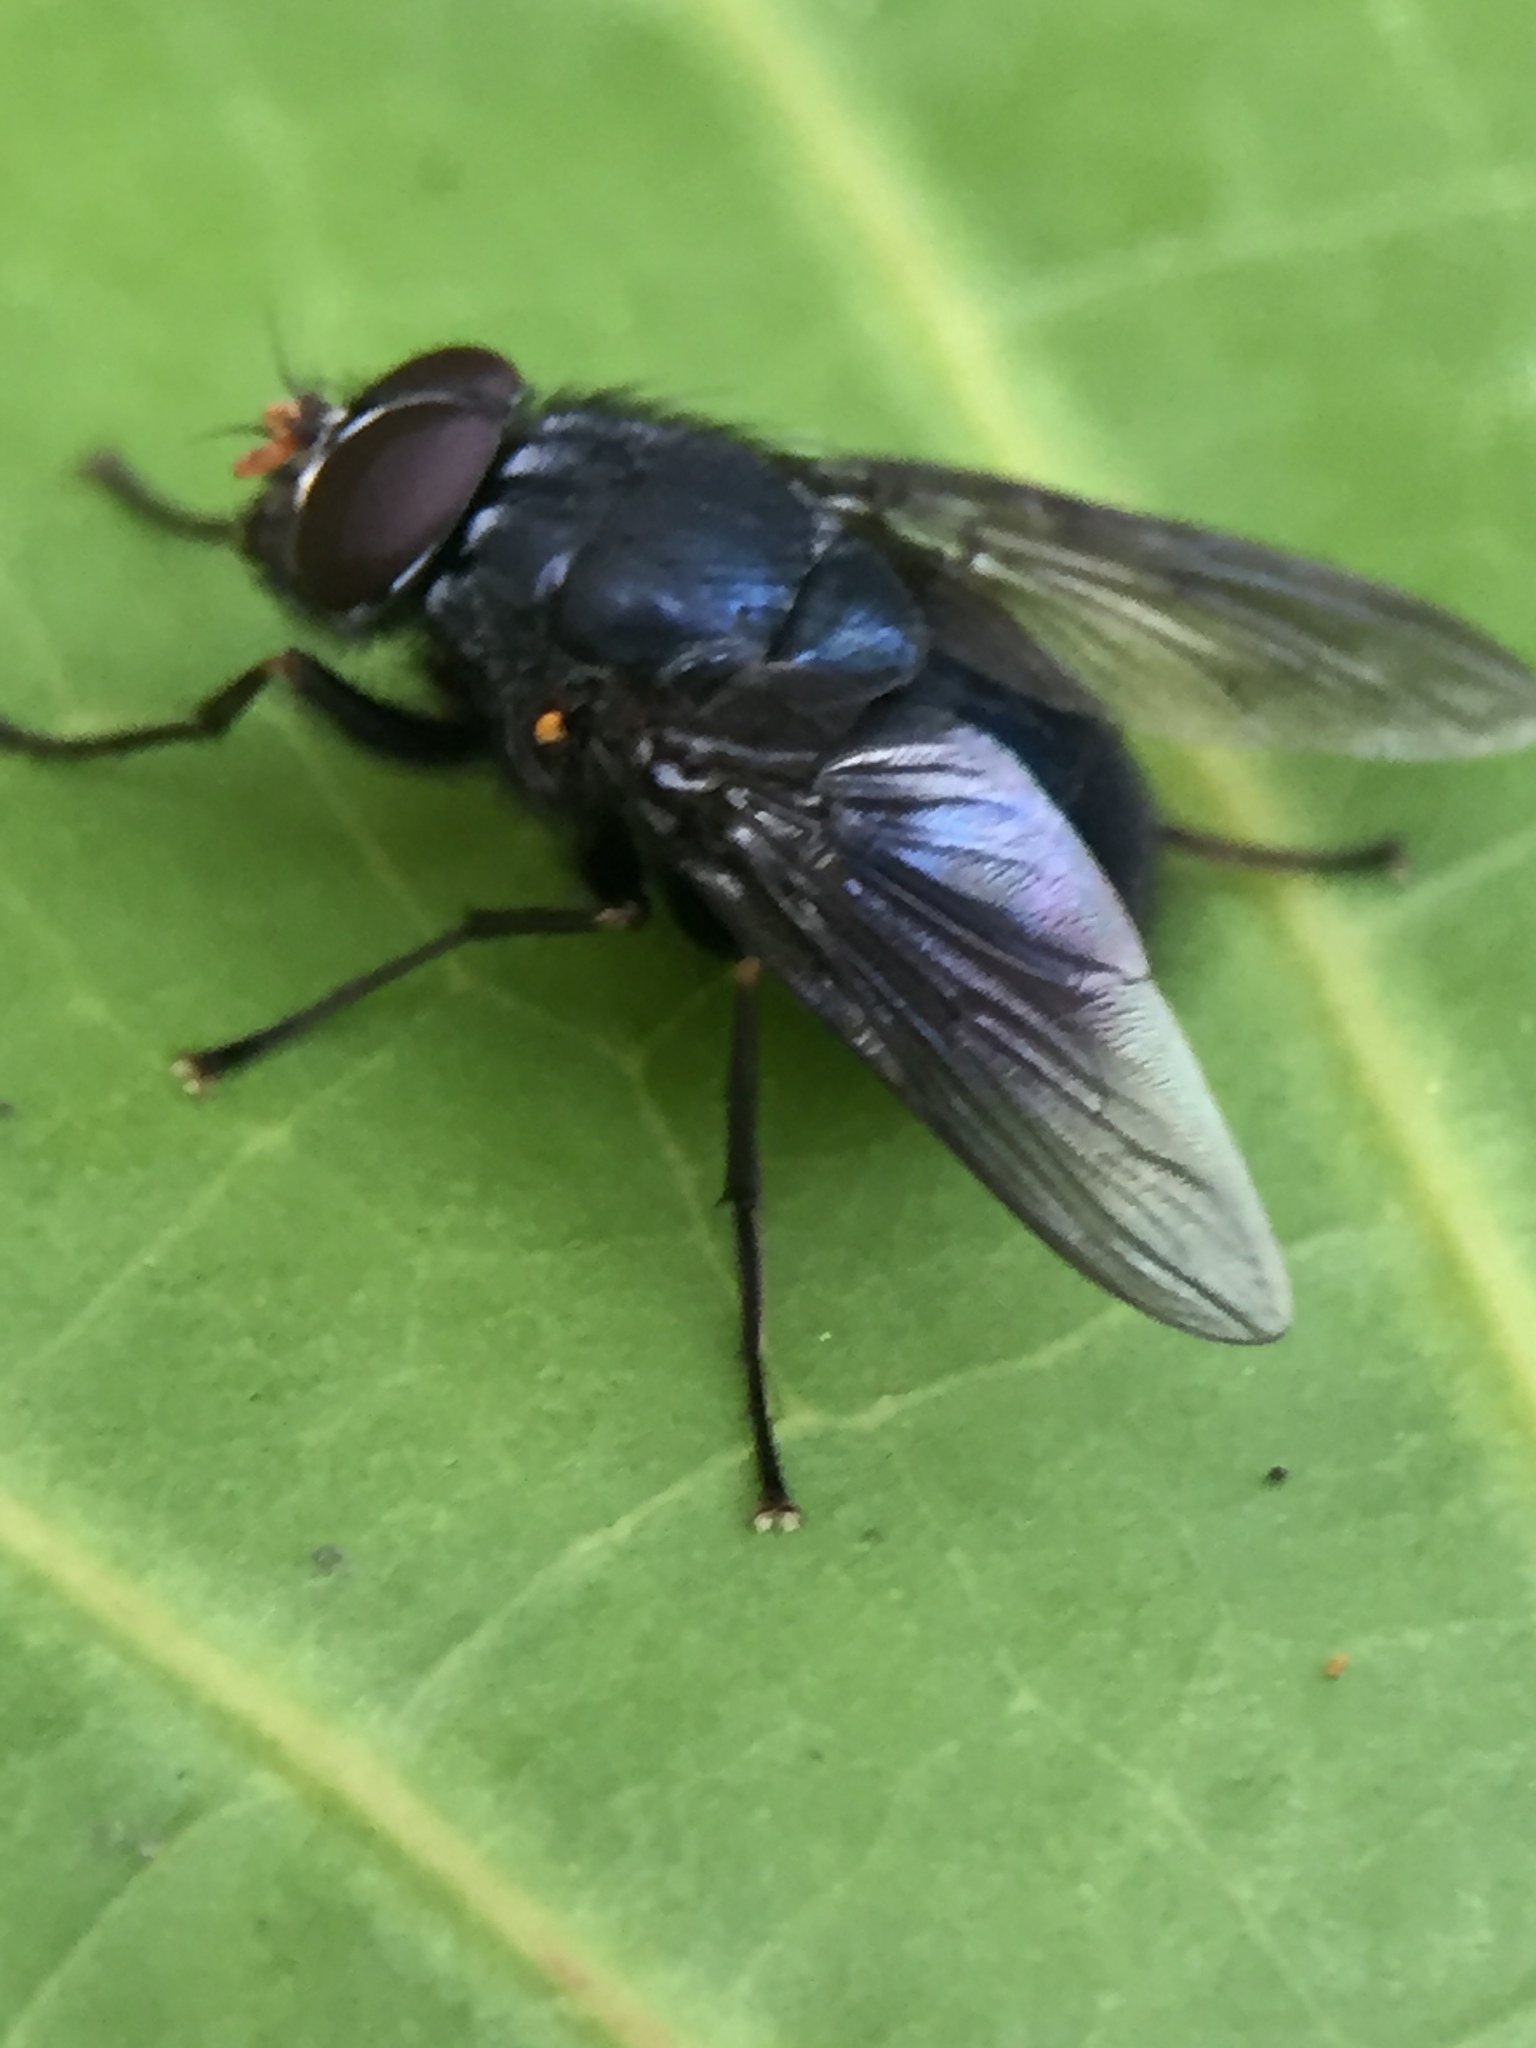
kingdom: Animalia
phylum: Arthropoda
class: Insecta
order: Diptera
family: Muscidae
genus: Calliphoroides
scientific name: Calliphoroides antennatis
